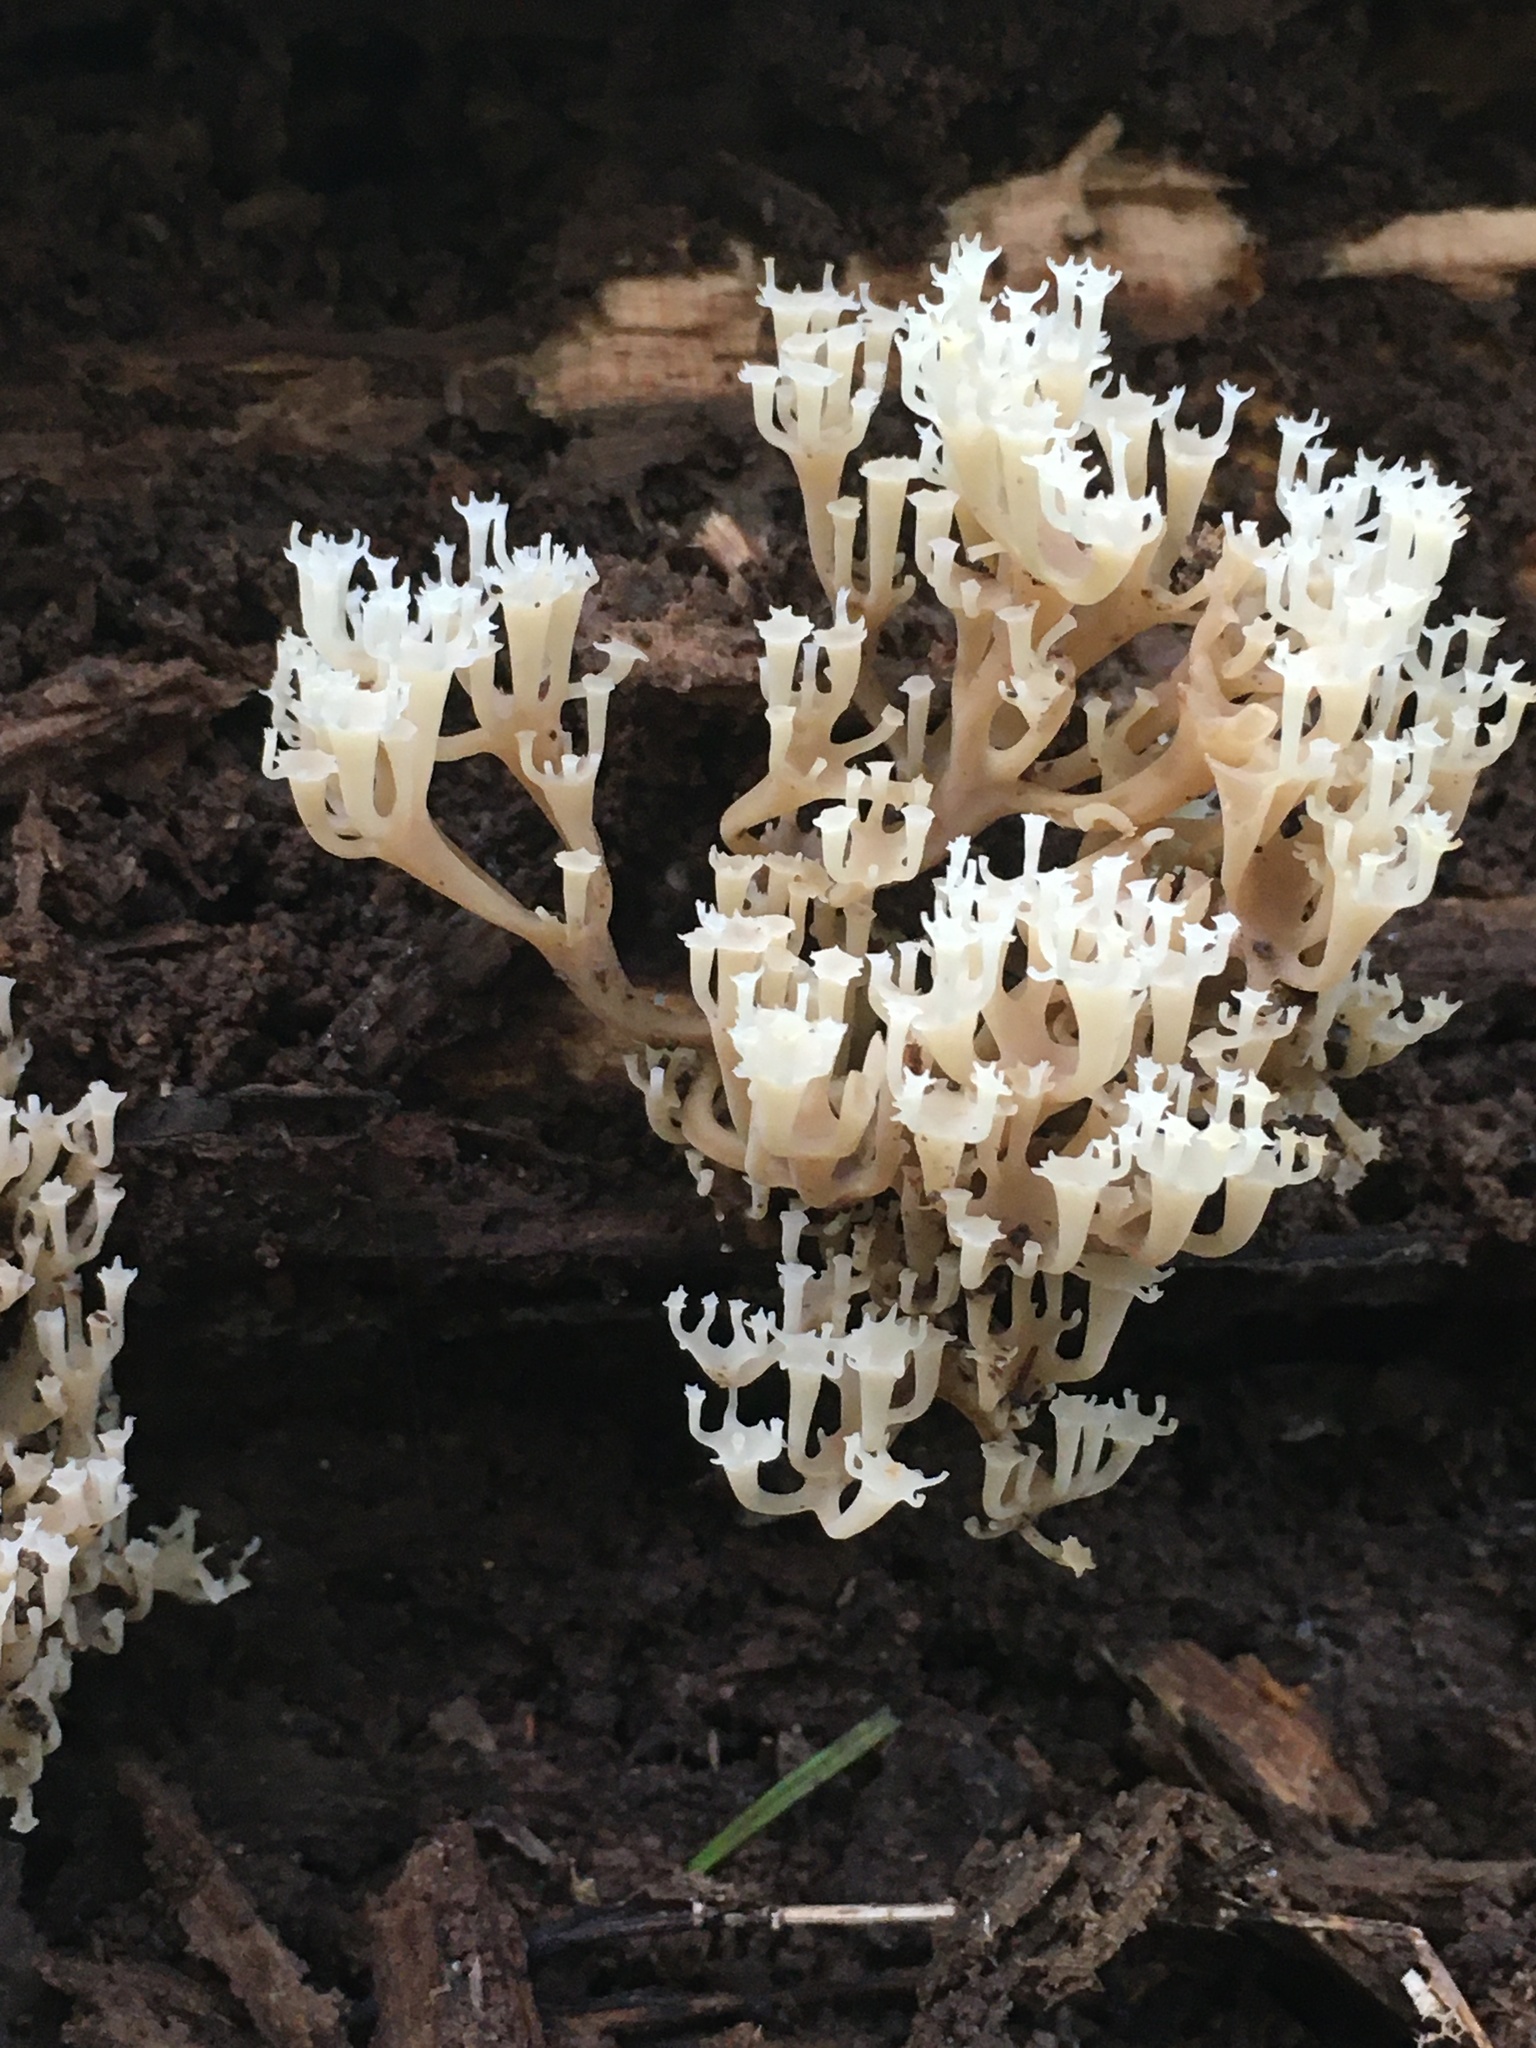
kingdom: Fungi
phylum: Basidiomycota
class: Agaricomycetes
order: Russulales
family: Auriscalpiaceae
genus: Artomyces
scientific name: Artomyces pyxidatus
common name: Crown-tipped coral fungus
